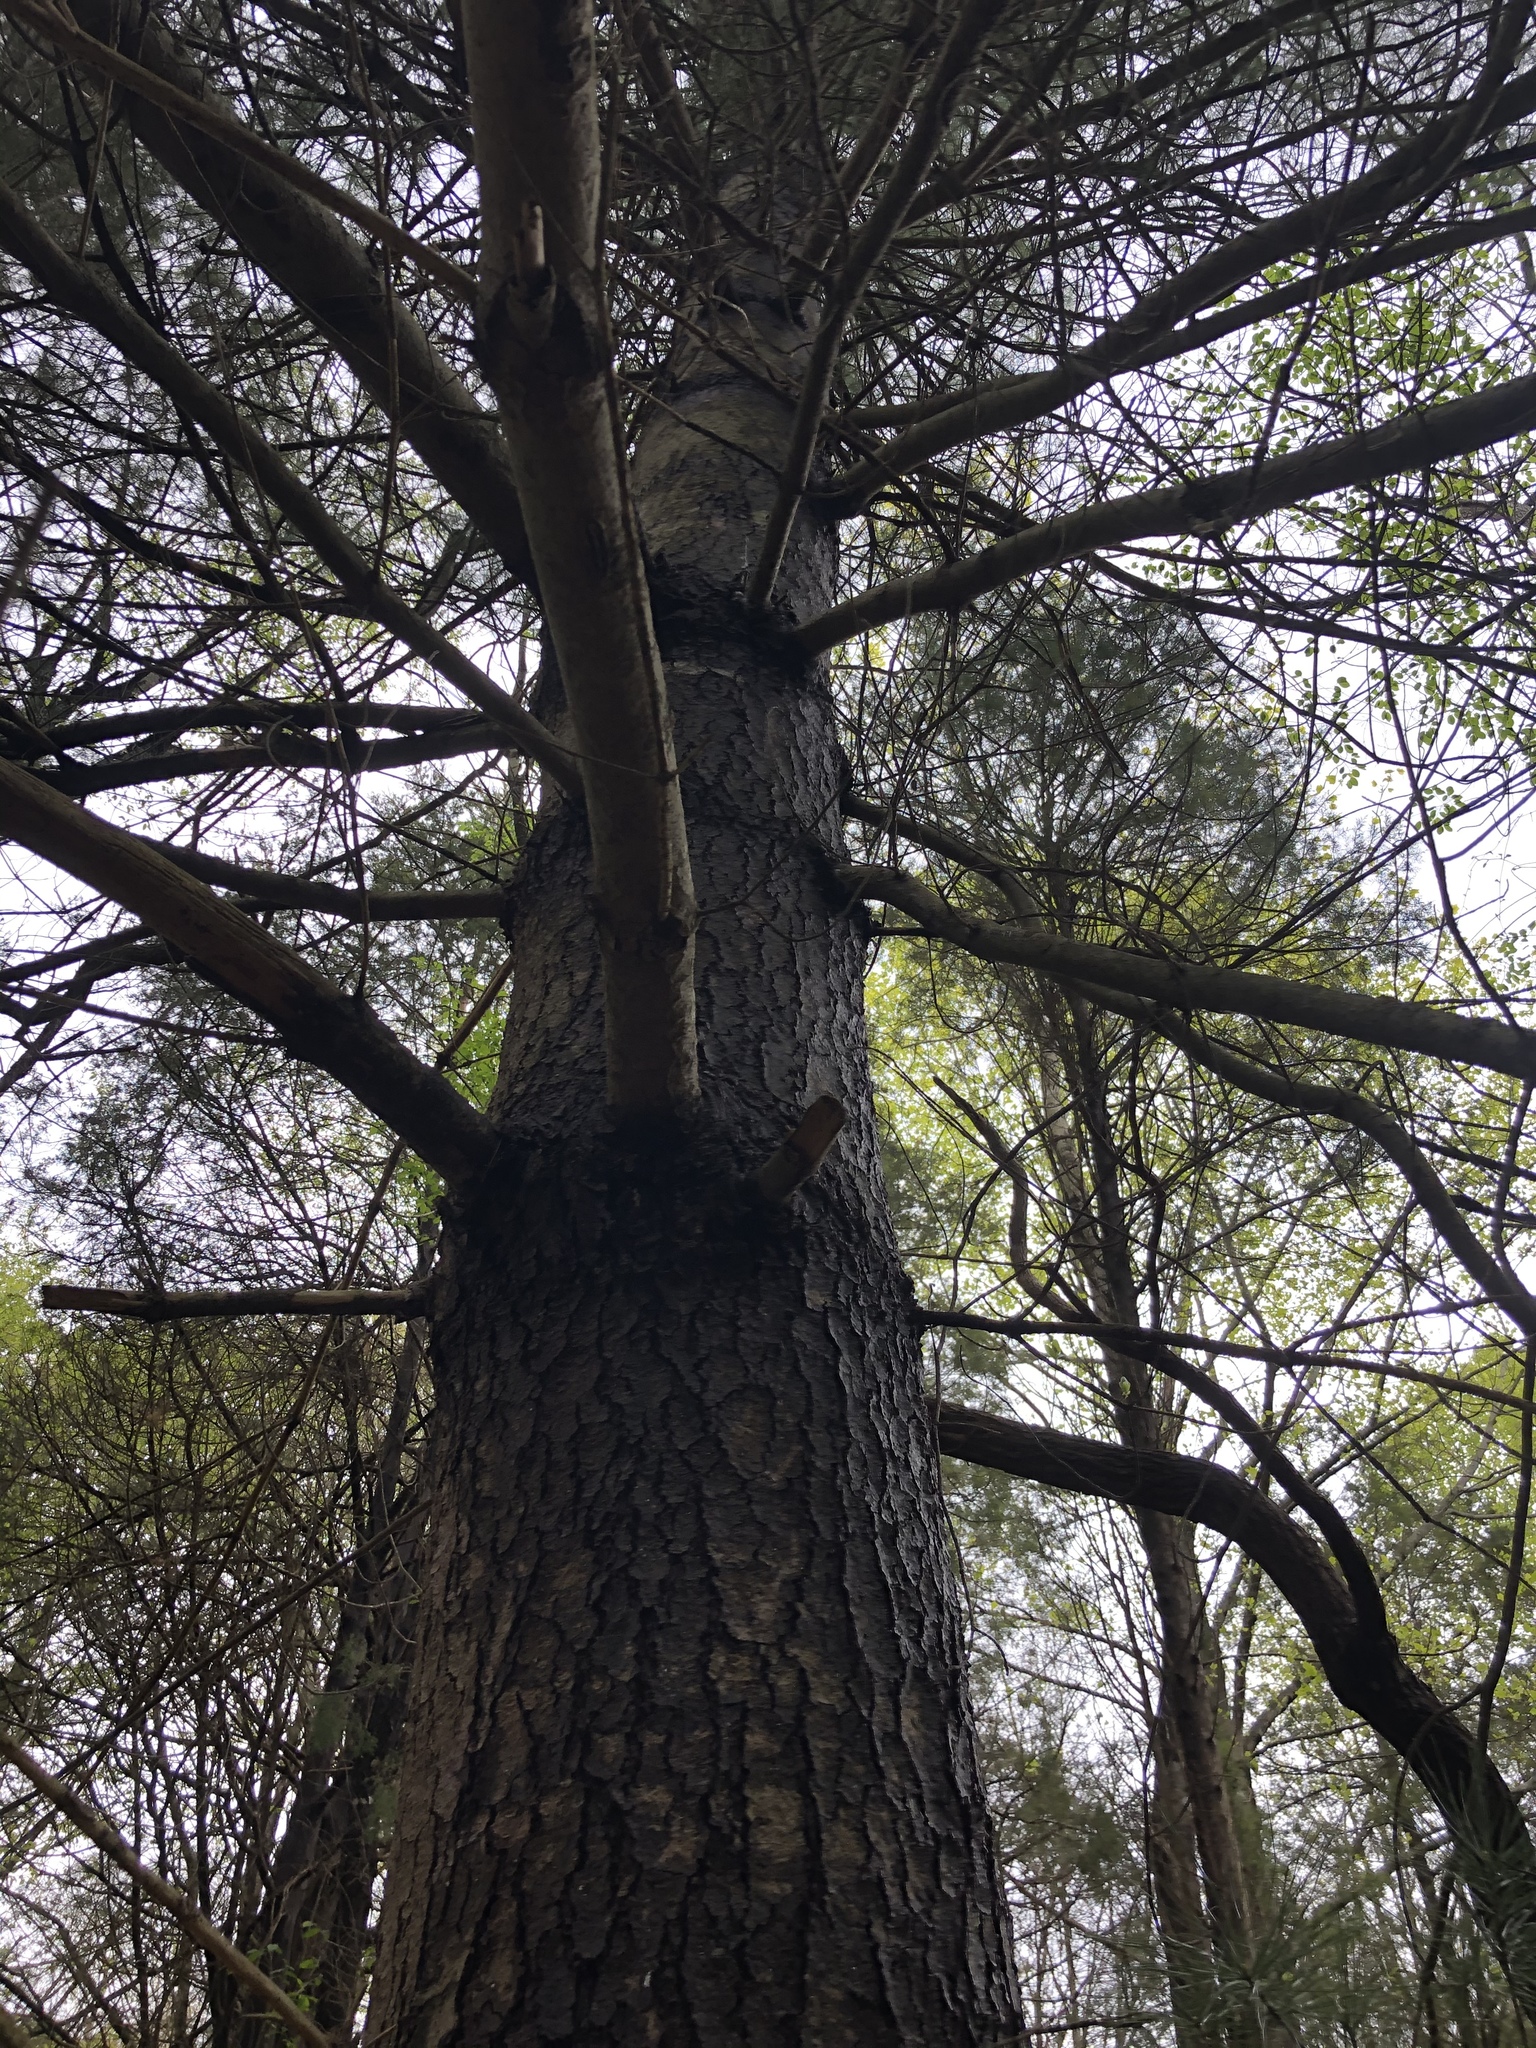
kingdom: Plantae
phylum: Tracheophyta
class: Pinopsida
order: Pinales
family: Pinaceae
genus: Pinus
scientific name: Pinus strobus
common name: Weymouth pine
